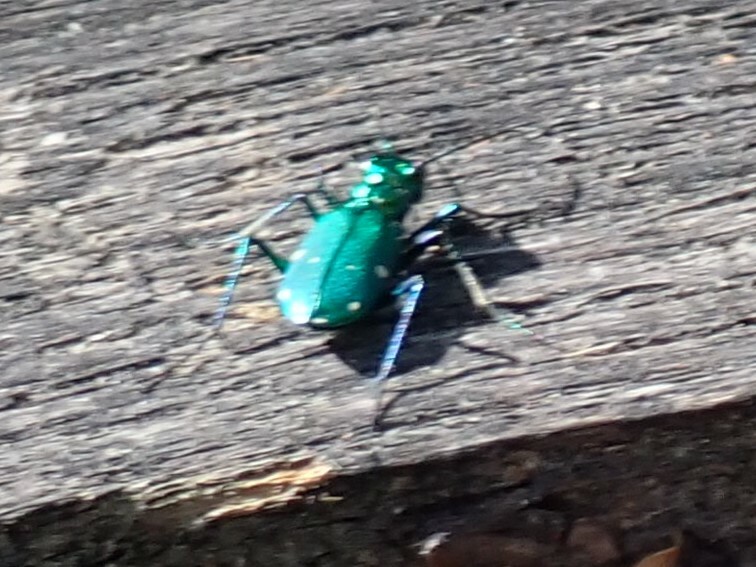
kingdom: Animalia
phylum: Arthropoda
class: Insecta
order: Coleoptera
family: Carabidae
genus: Cicindela
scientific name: Cicindela sexguttata
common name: Six-spotted tiger beetle
